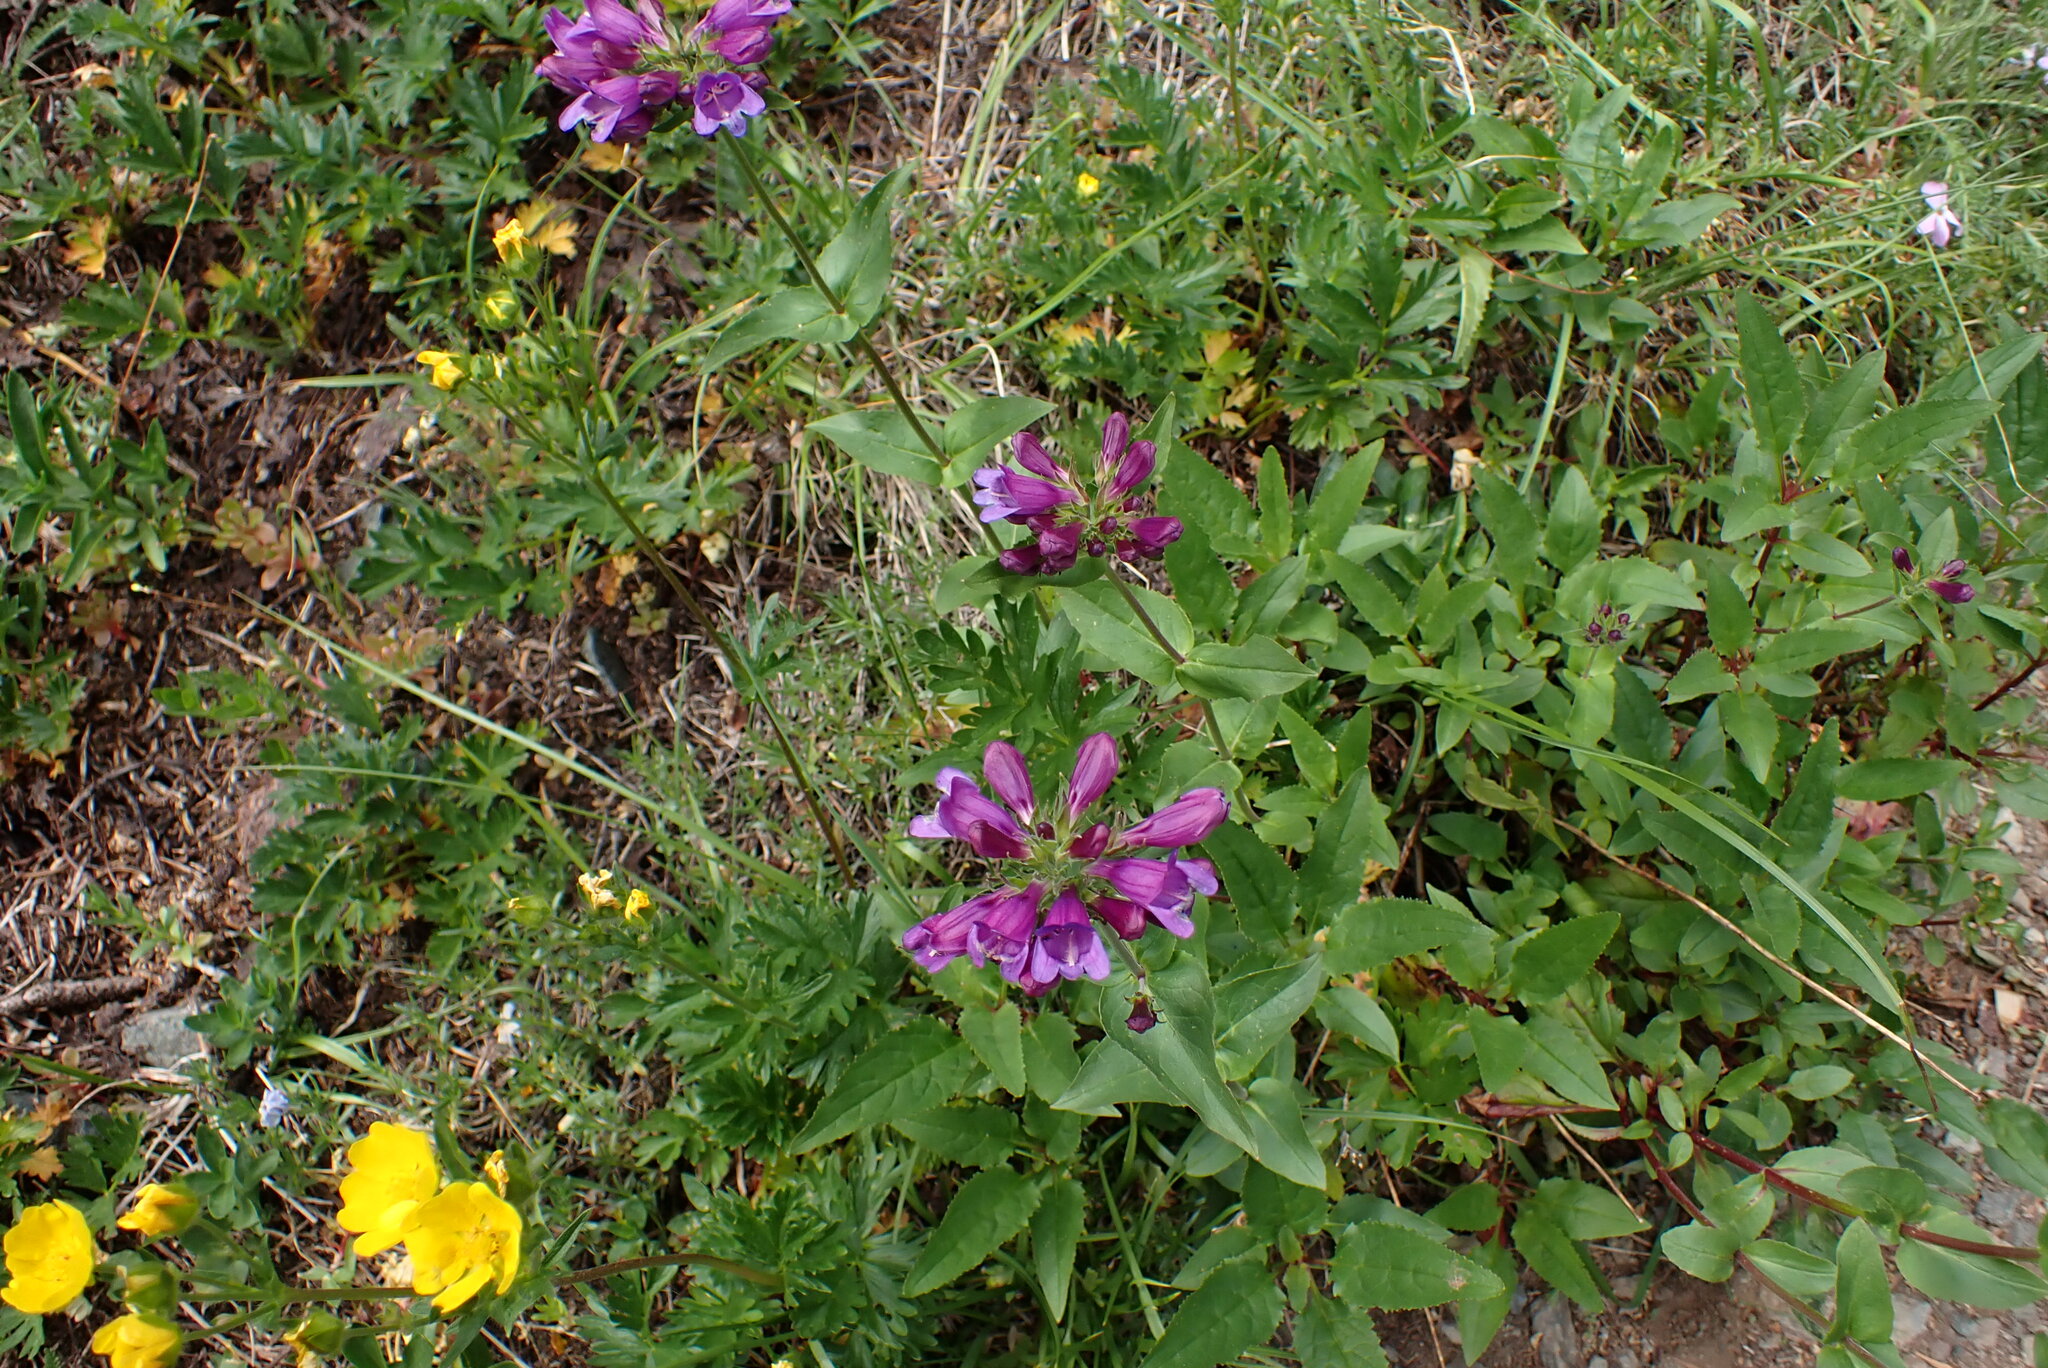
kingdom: Plantae
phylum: Tracheophyta
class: Magnoliopsida
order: Lamiales
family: Plantaginaceae
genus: Penstemon
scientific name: Penstemon serrulatus
